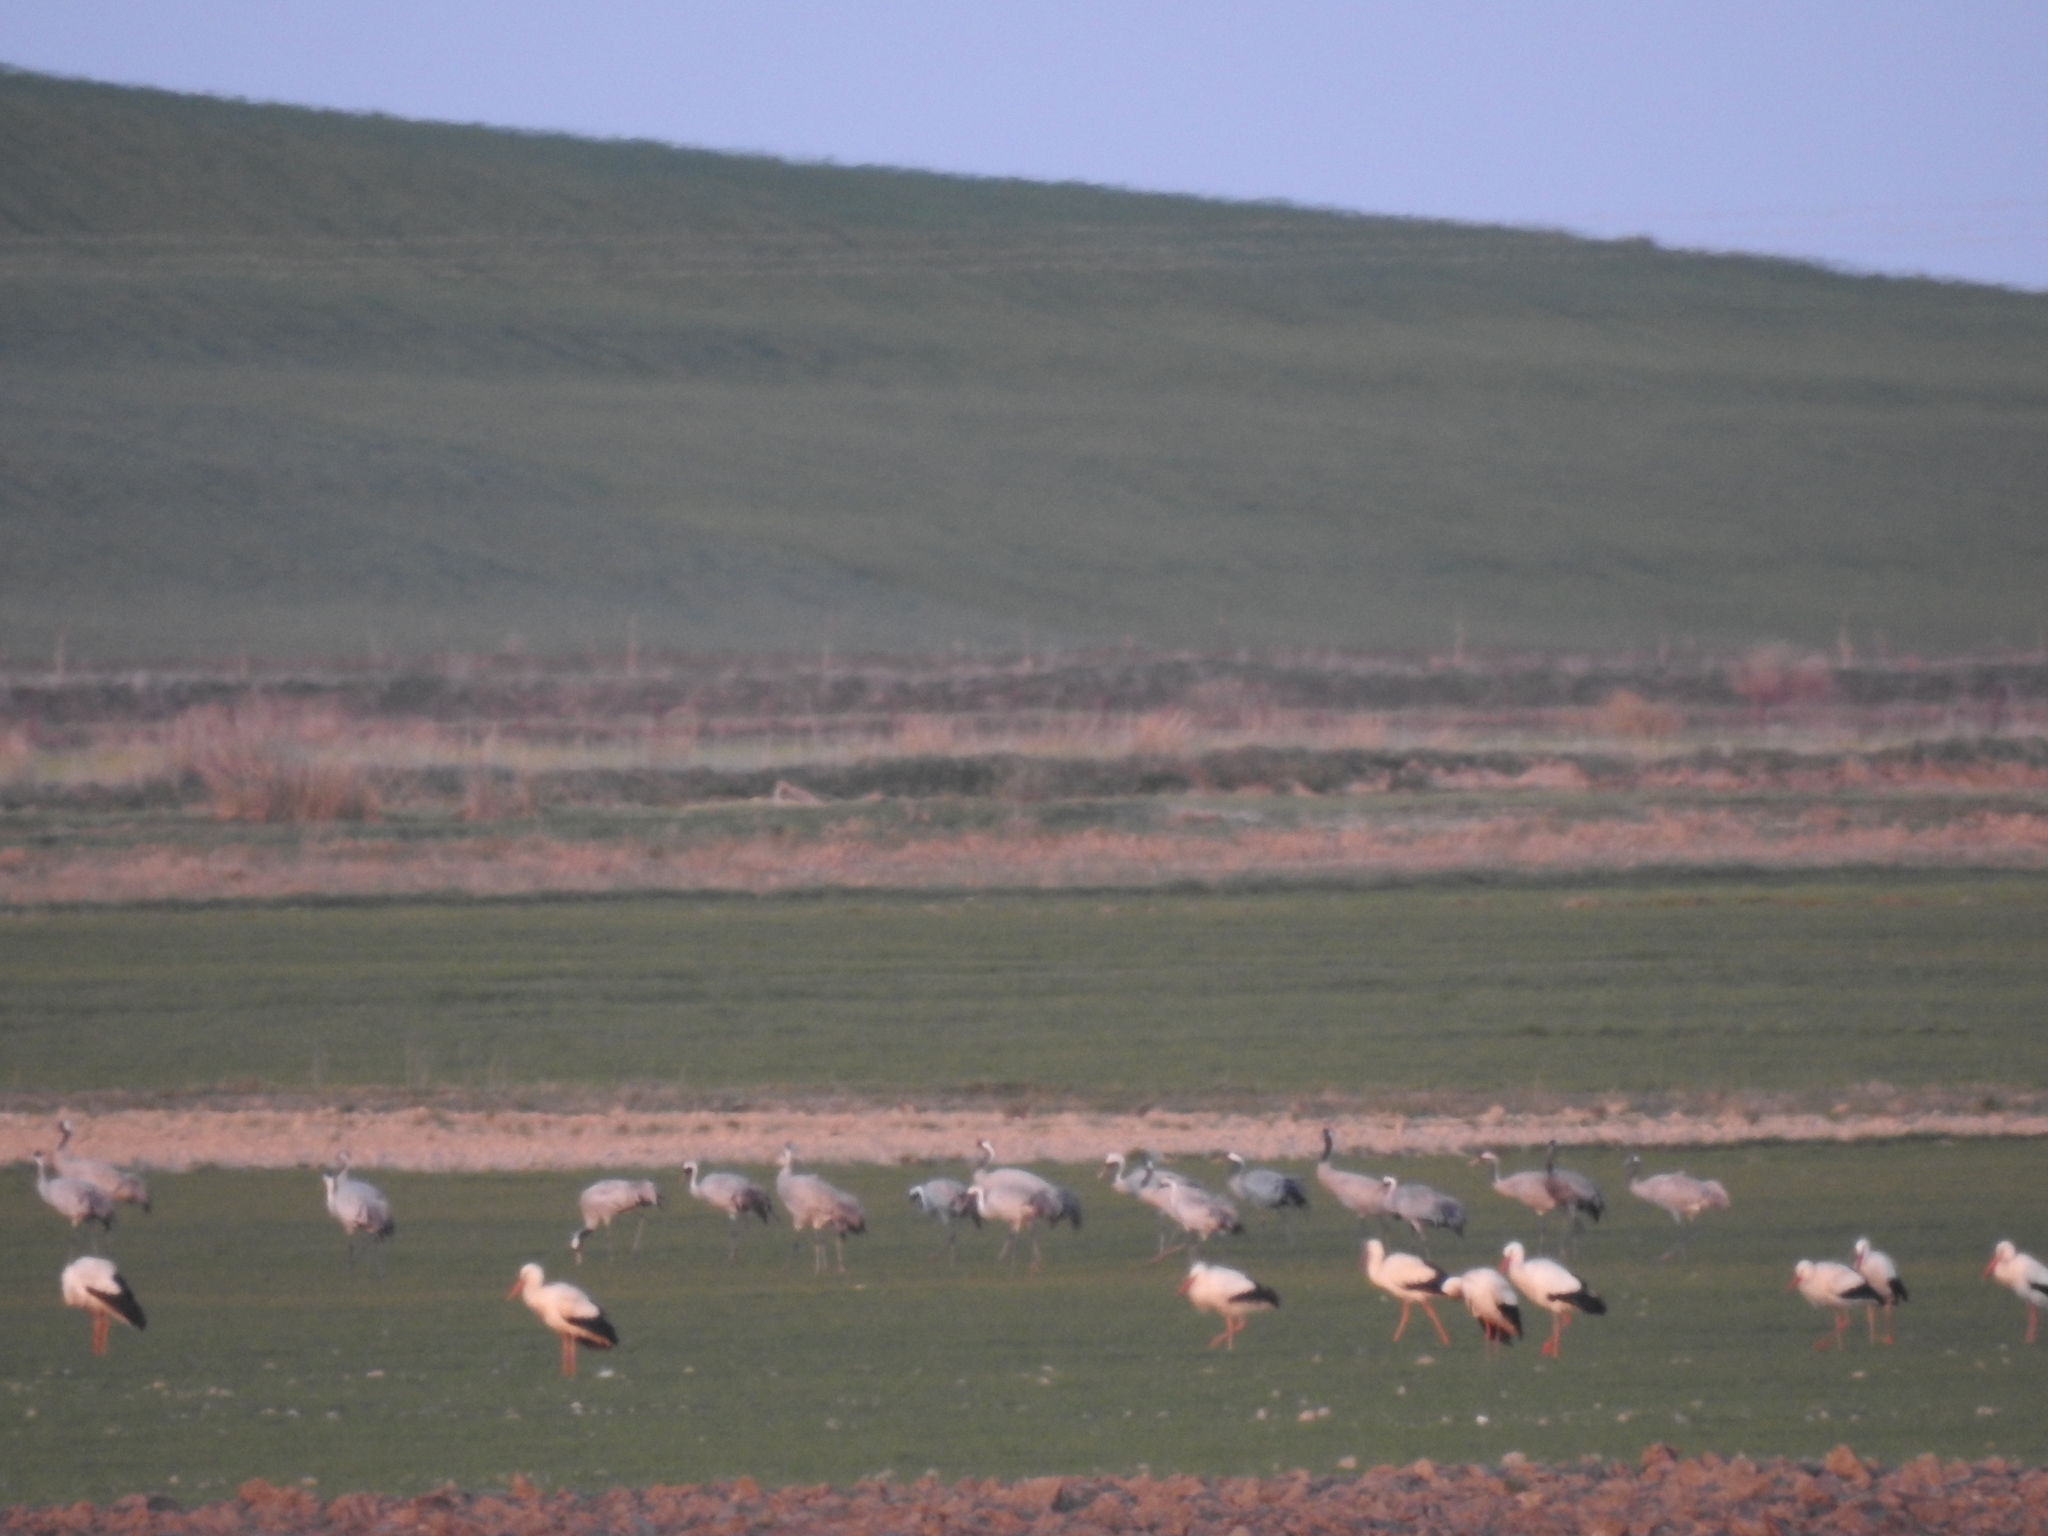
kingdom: Animalia
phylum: Chordata
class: Aves
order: Gruiformes
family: Gruidae
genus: Grus
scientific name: Grus grus
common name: Common crane
